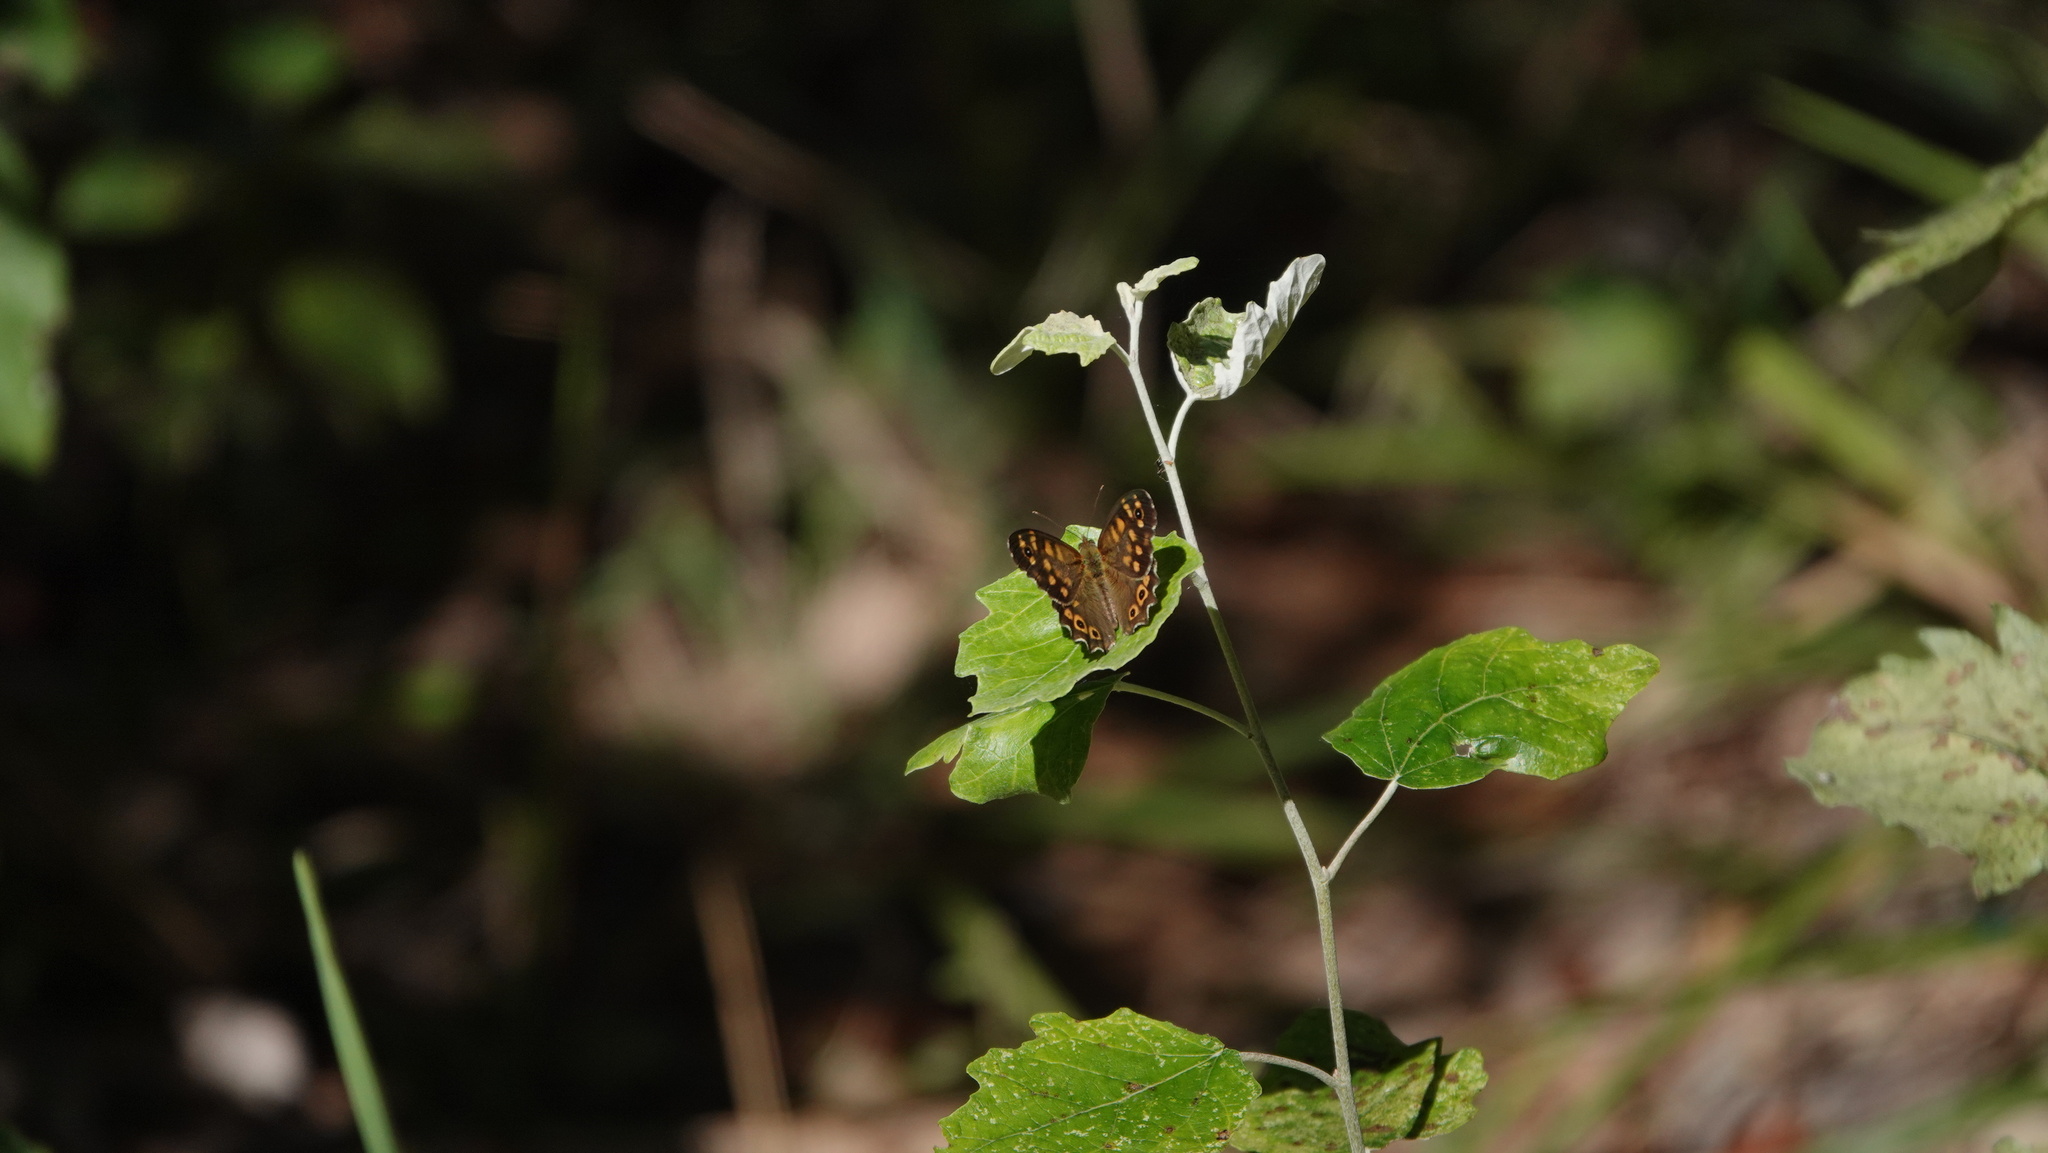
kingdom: Animalia
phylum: Arthropoda
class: Insecta
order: Lepidoptera
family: Nymphalidae
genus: Pararge
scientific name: Pararge aegeria
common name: Speckled wood
